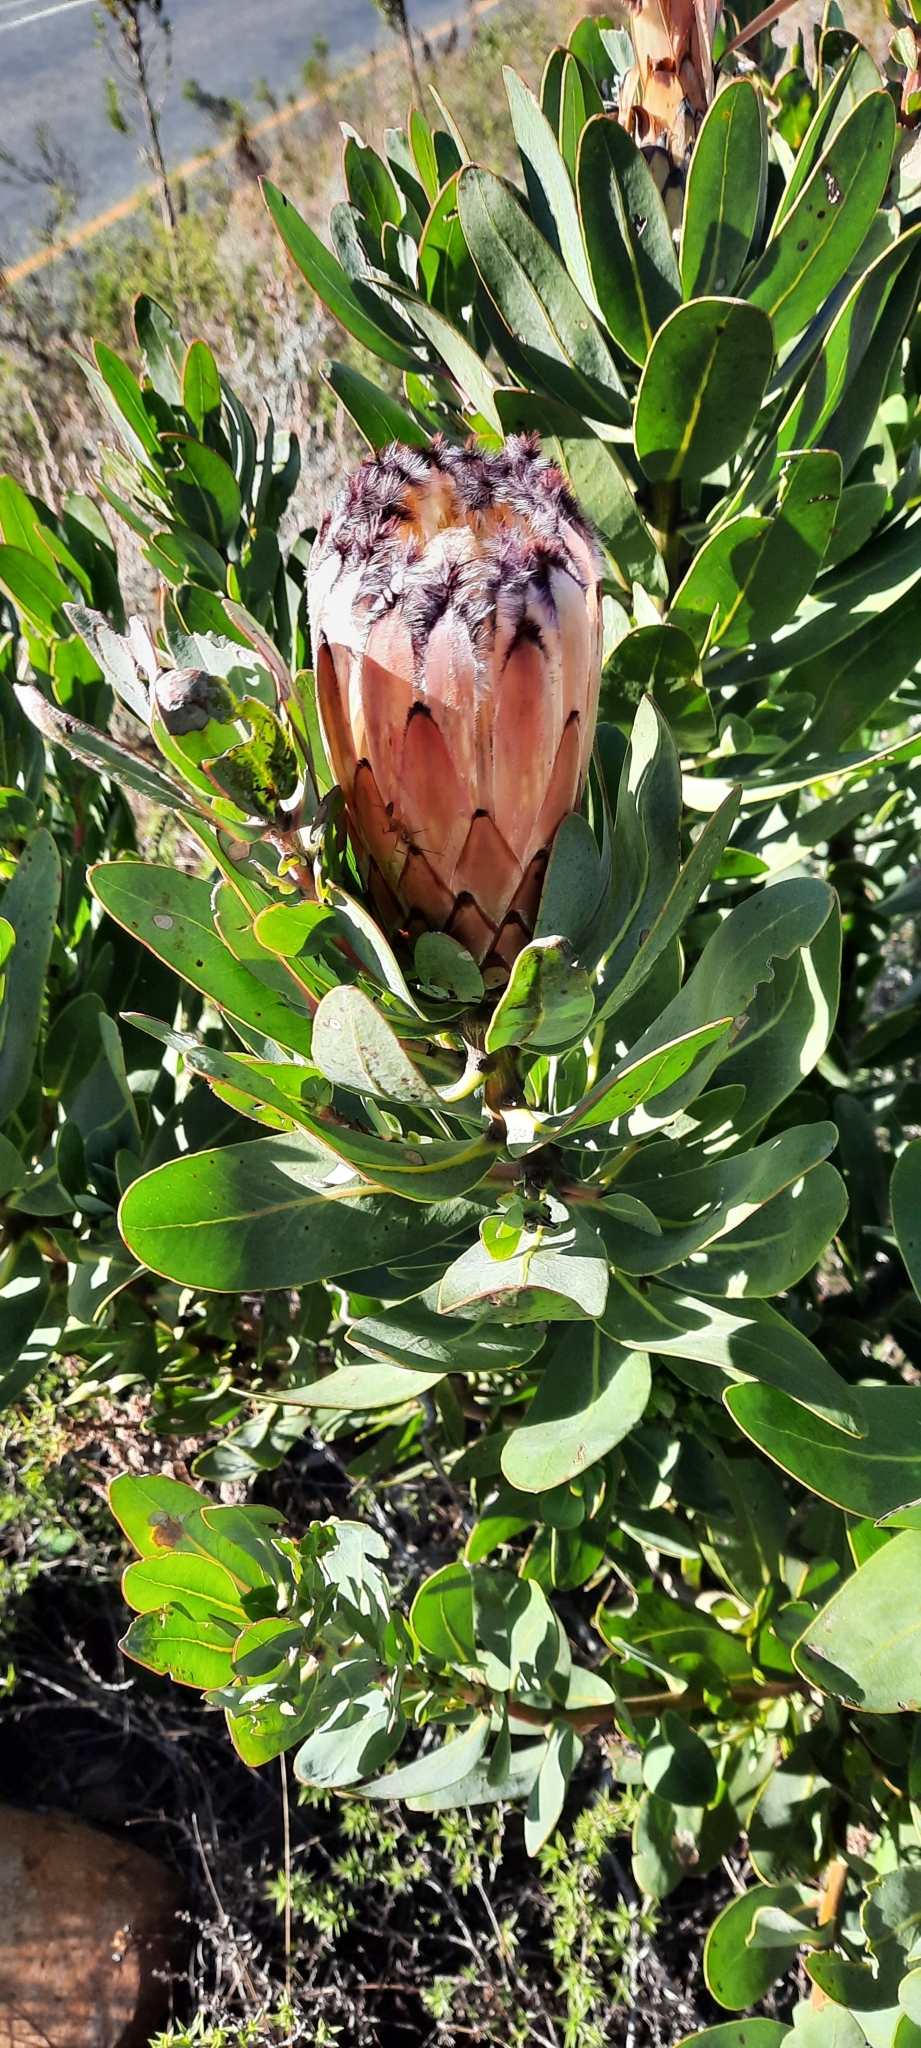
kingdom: Plantae
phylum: Tracheophyta
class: Magnoliopsida
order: Proteales
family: Proteaceae
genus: Protea
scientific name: Protea laurifolia
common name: Grey-leaf sugarbsh
